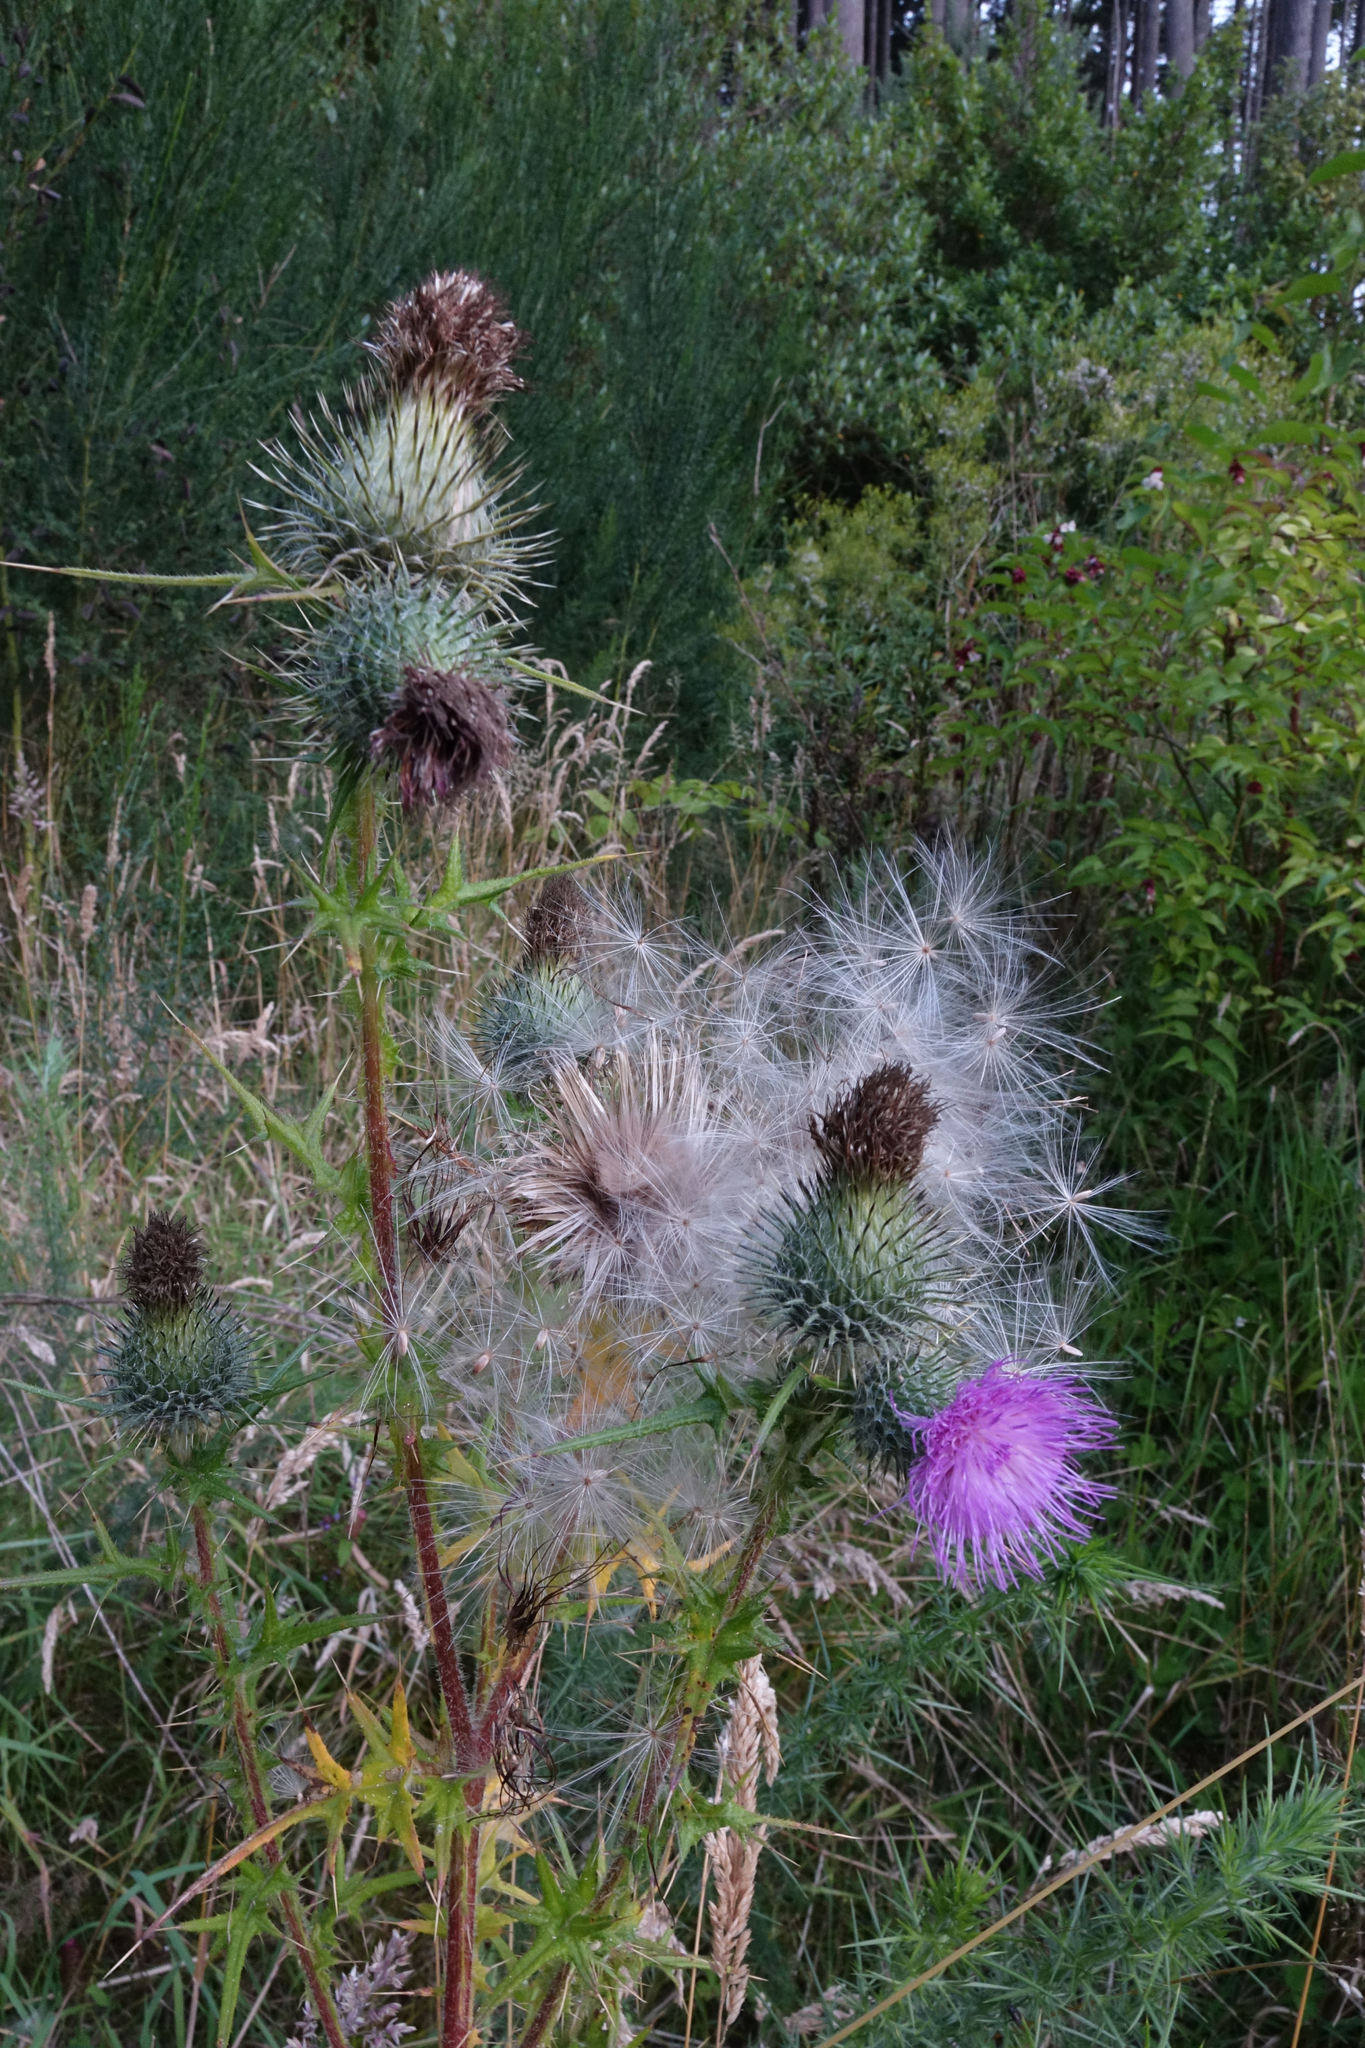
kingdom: Plantae
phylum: Tracheophyta
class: Magnoliopsida
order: Asterales
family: Asteraceae
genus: Cirsium
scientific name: Cirsium vulgare
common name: Bull thistle
